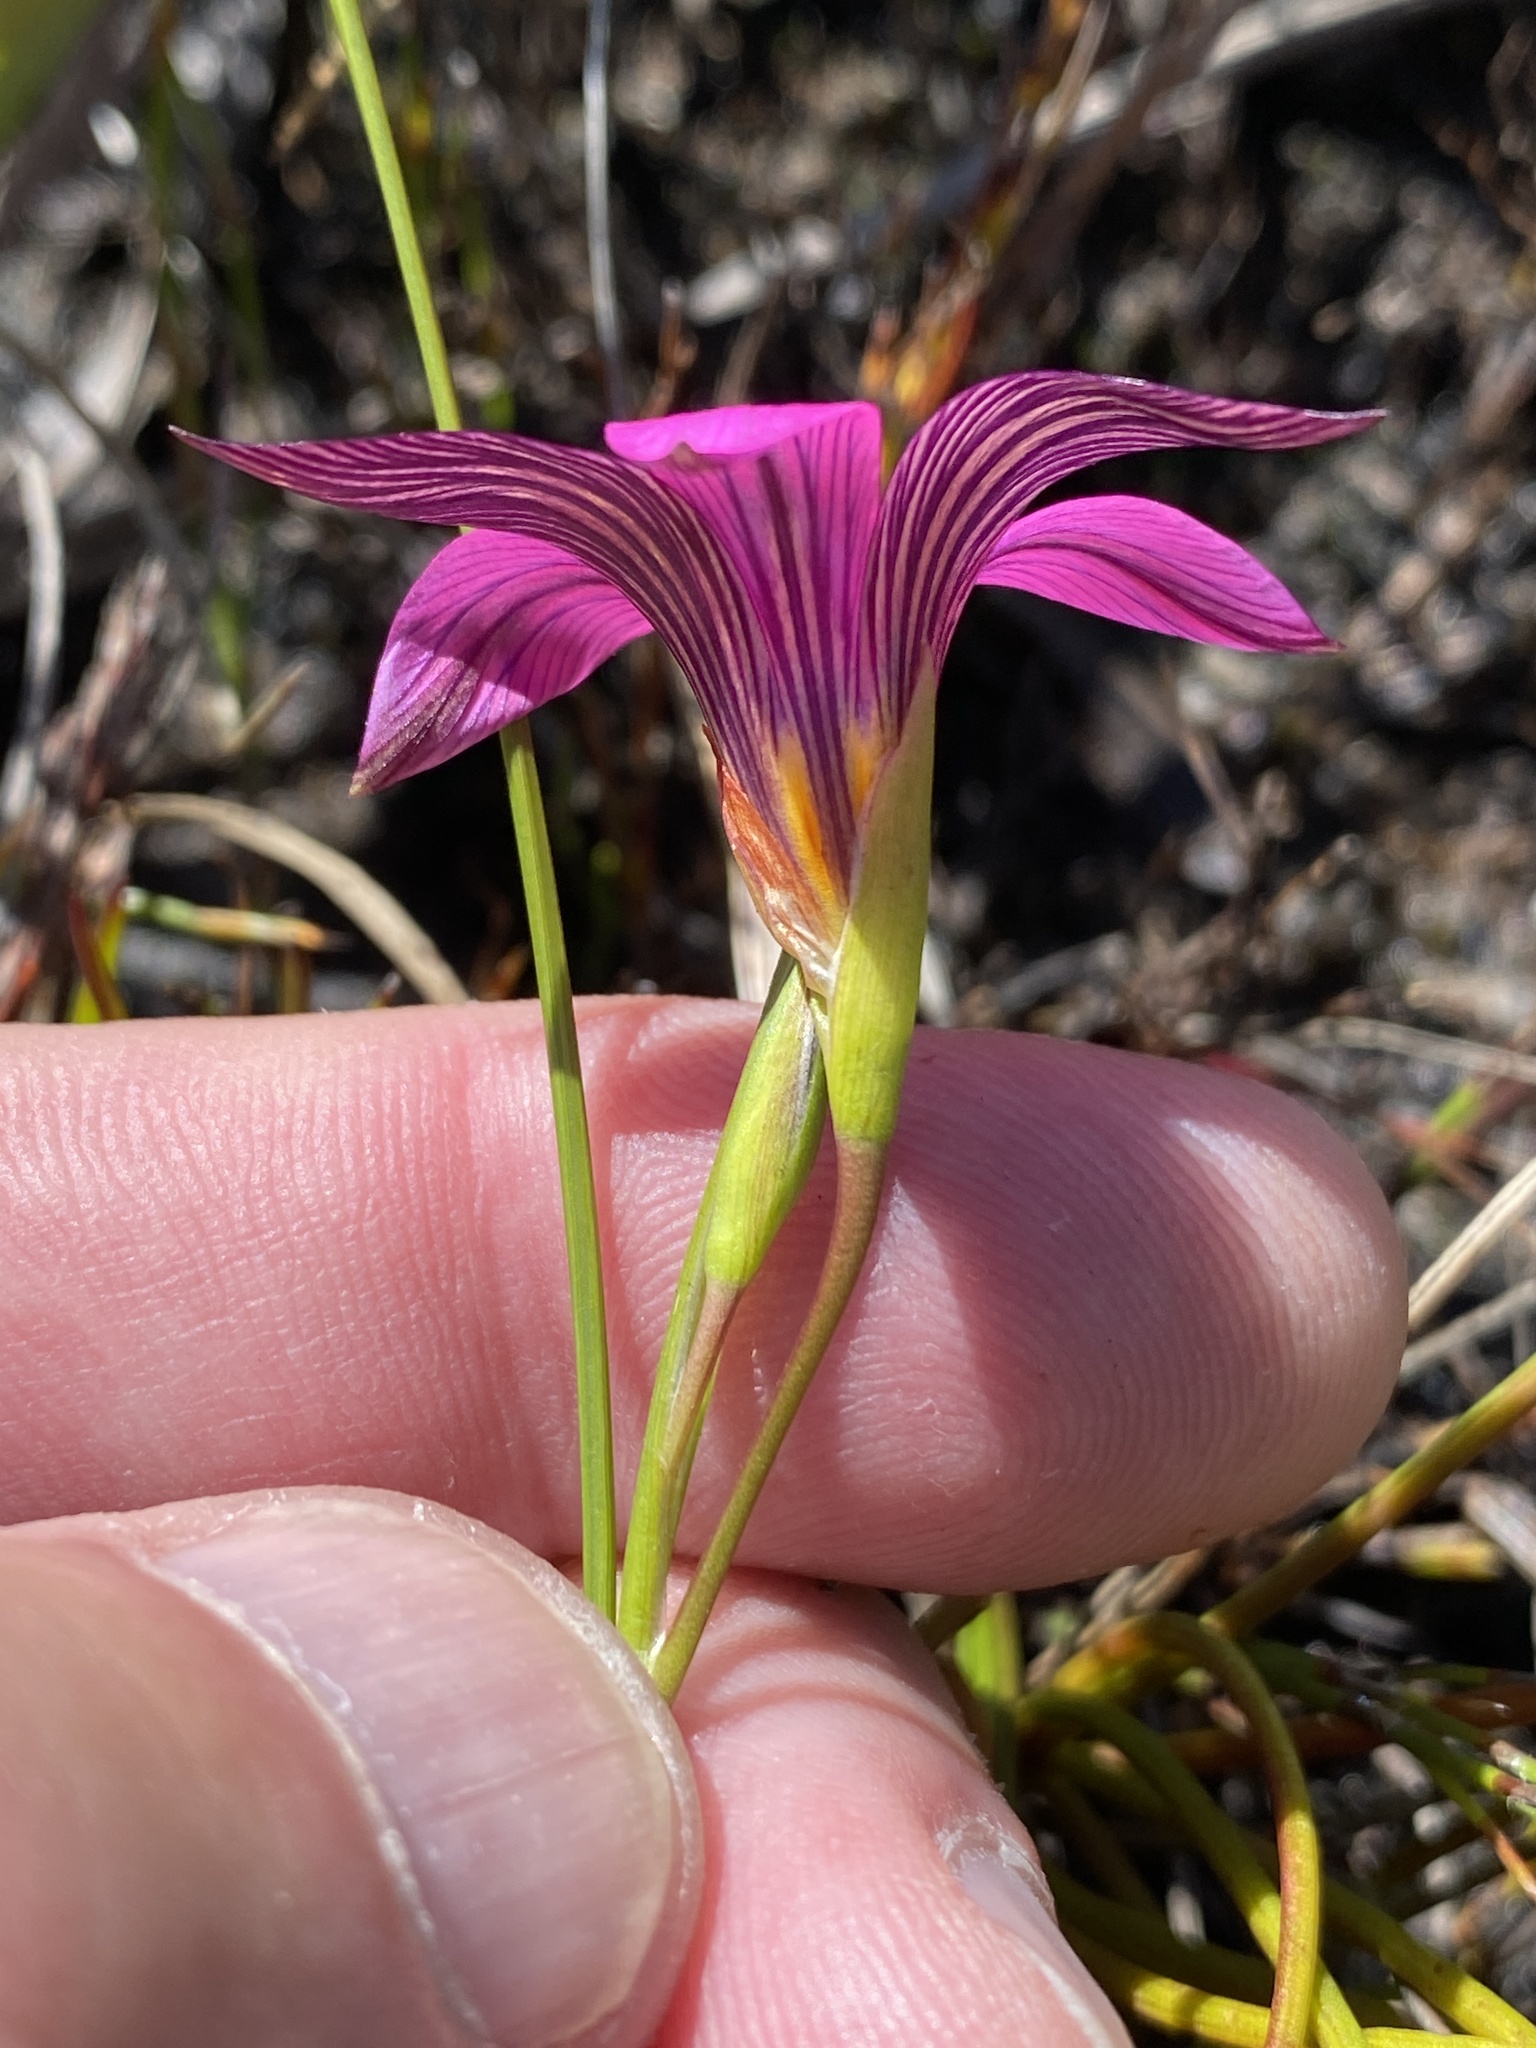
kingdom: Plantae
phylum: Tracheophyta
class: Liliopsida
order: Asparagales
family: Iridaceae
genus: Romulea
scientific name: Romulea dichotoma
